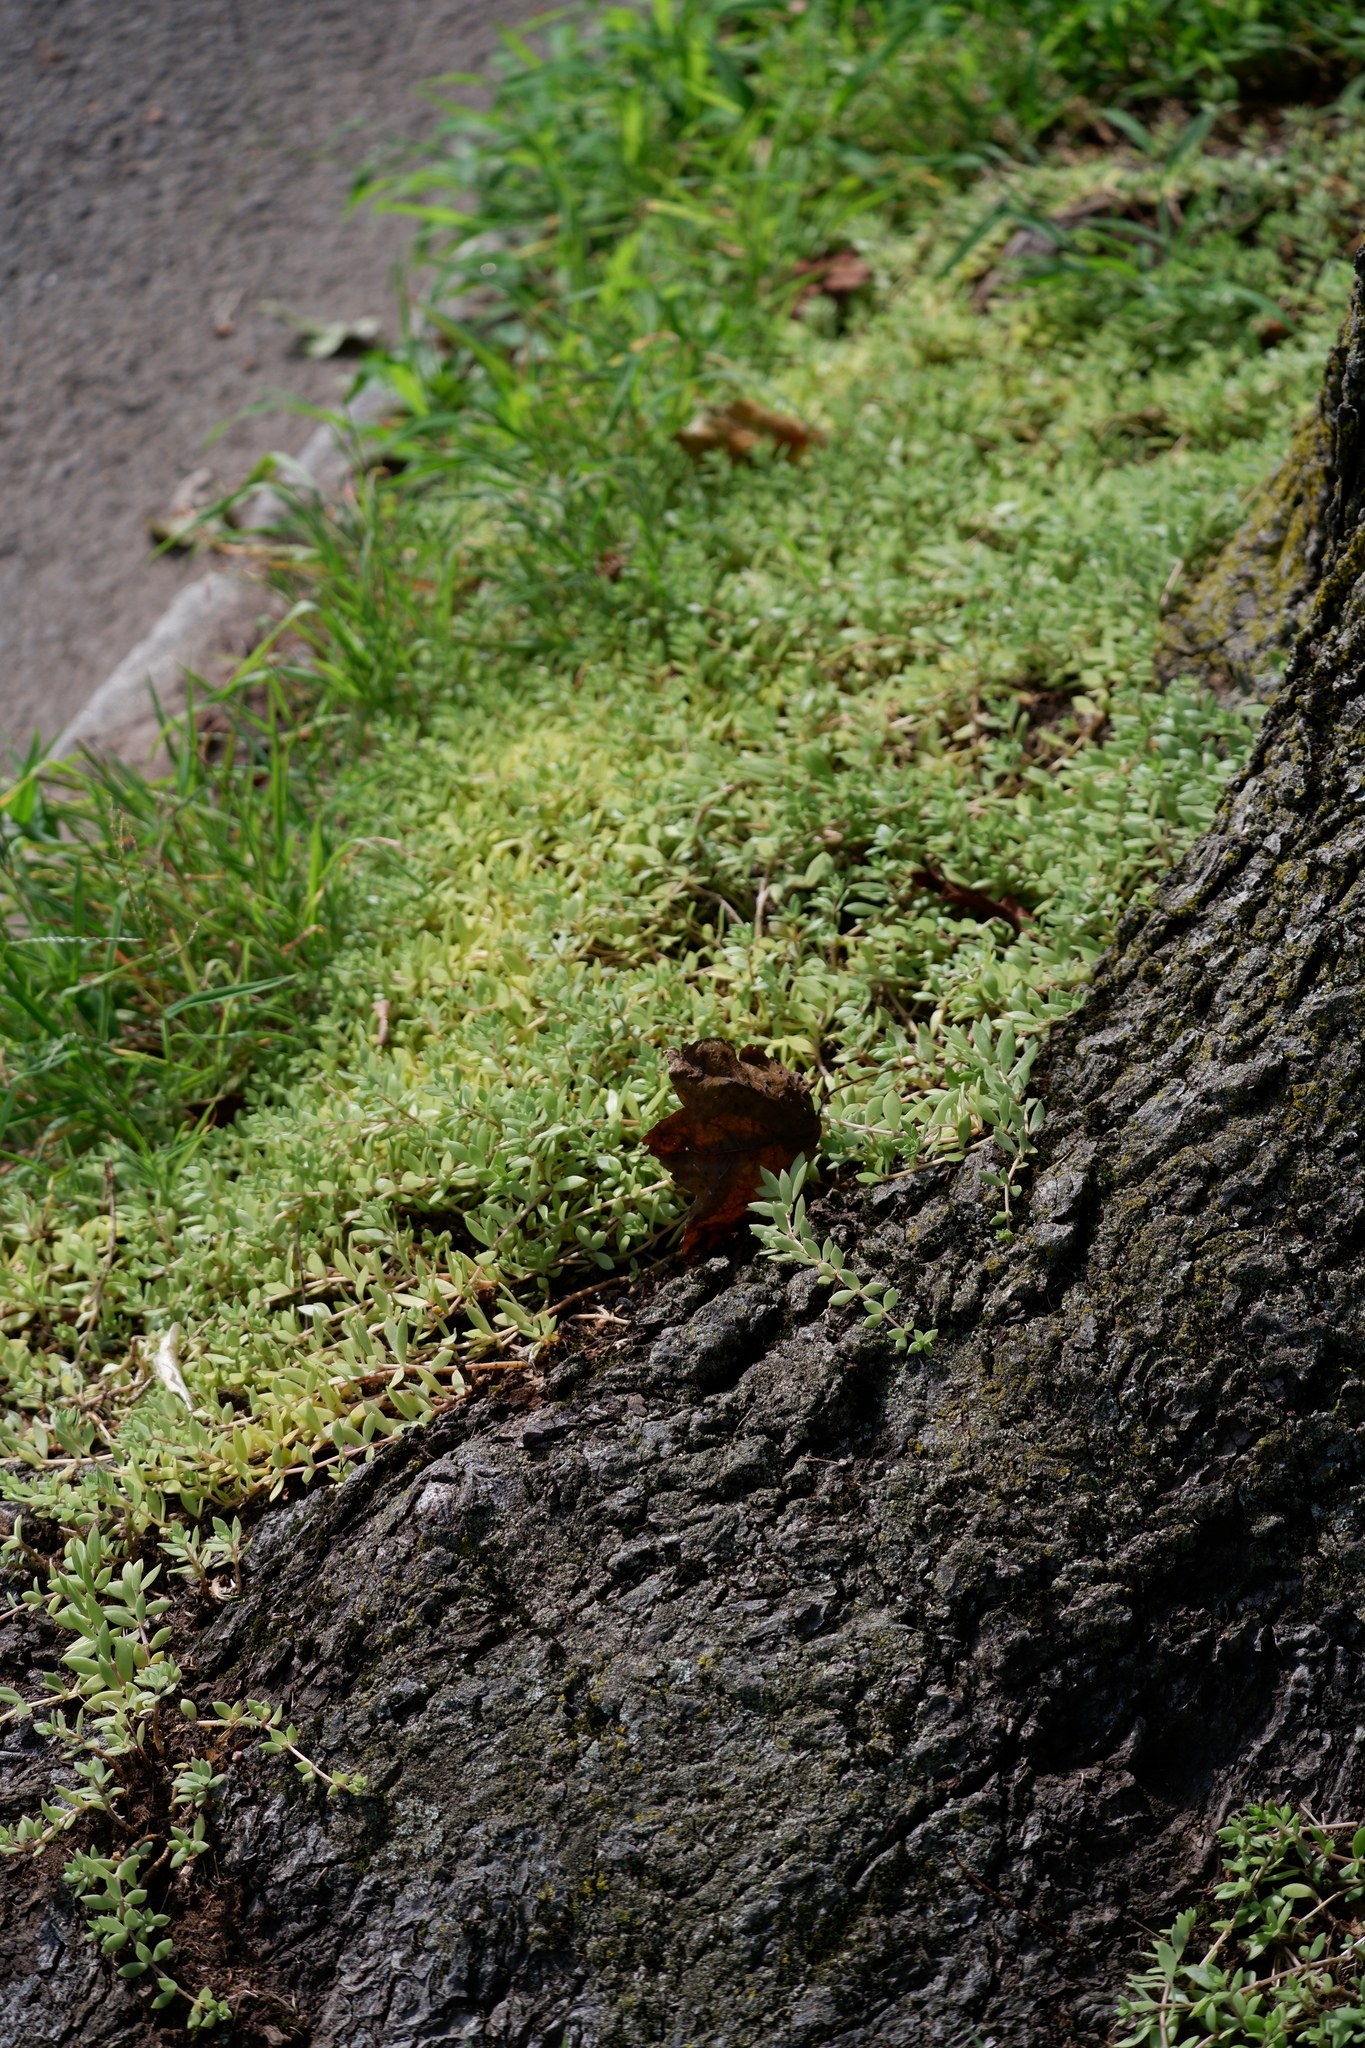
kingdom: Plantae
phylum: Tracheophyta
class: Magnoliopsida
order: Saxifragales
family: Crassulaceae
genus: Sedum
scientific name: Sedum sarmentosum
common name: Stringy stonecrop
